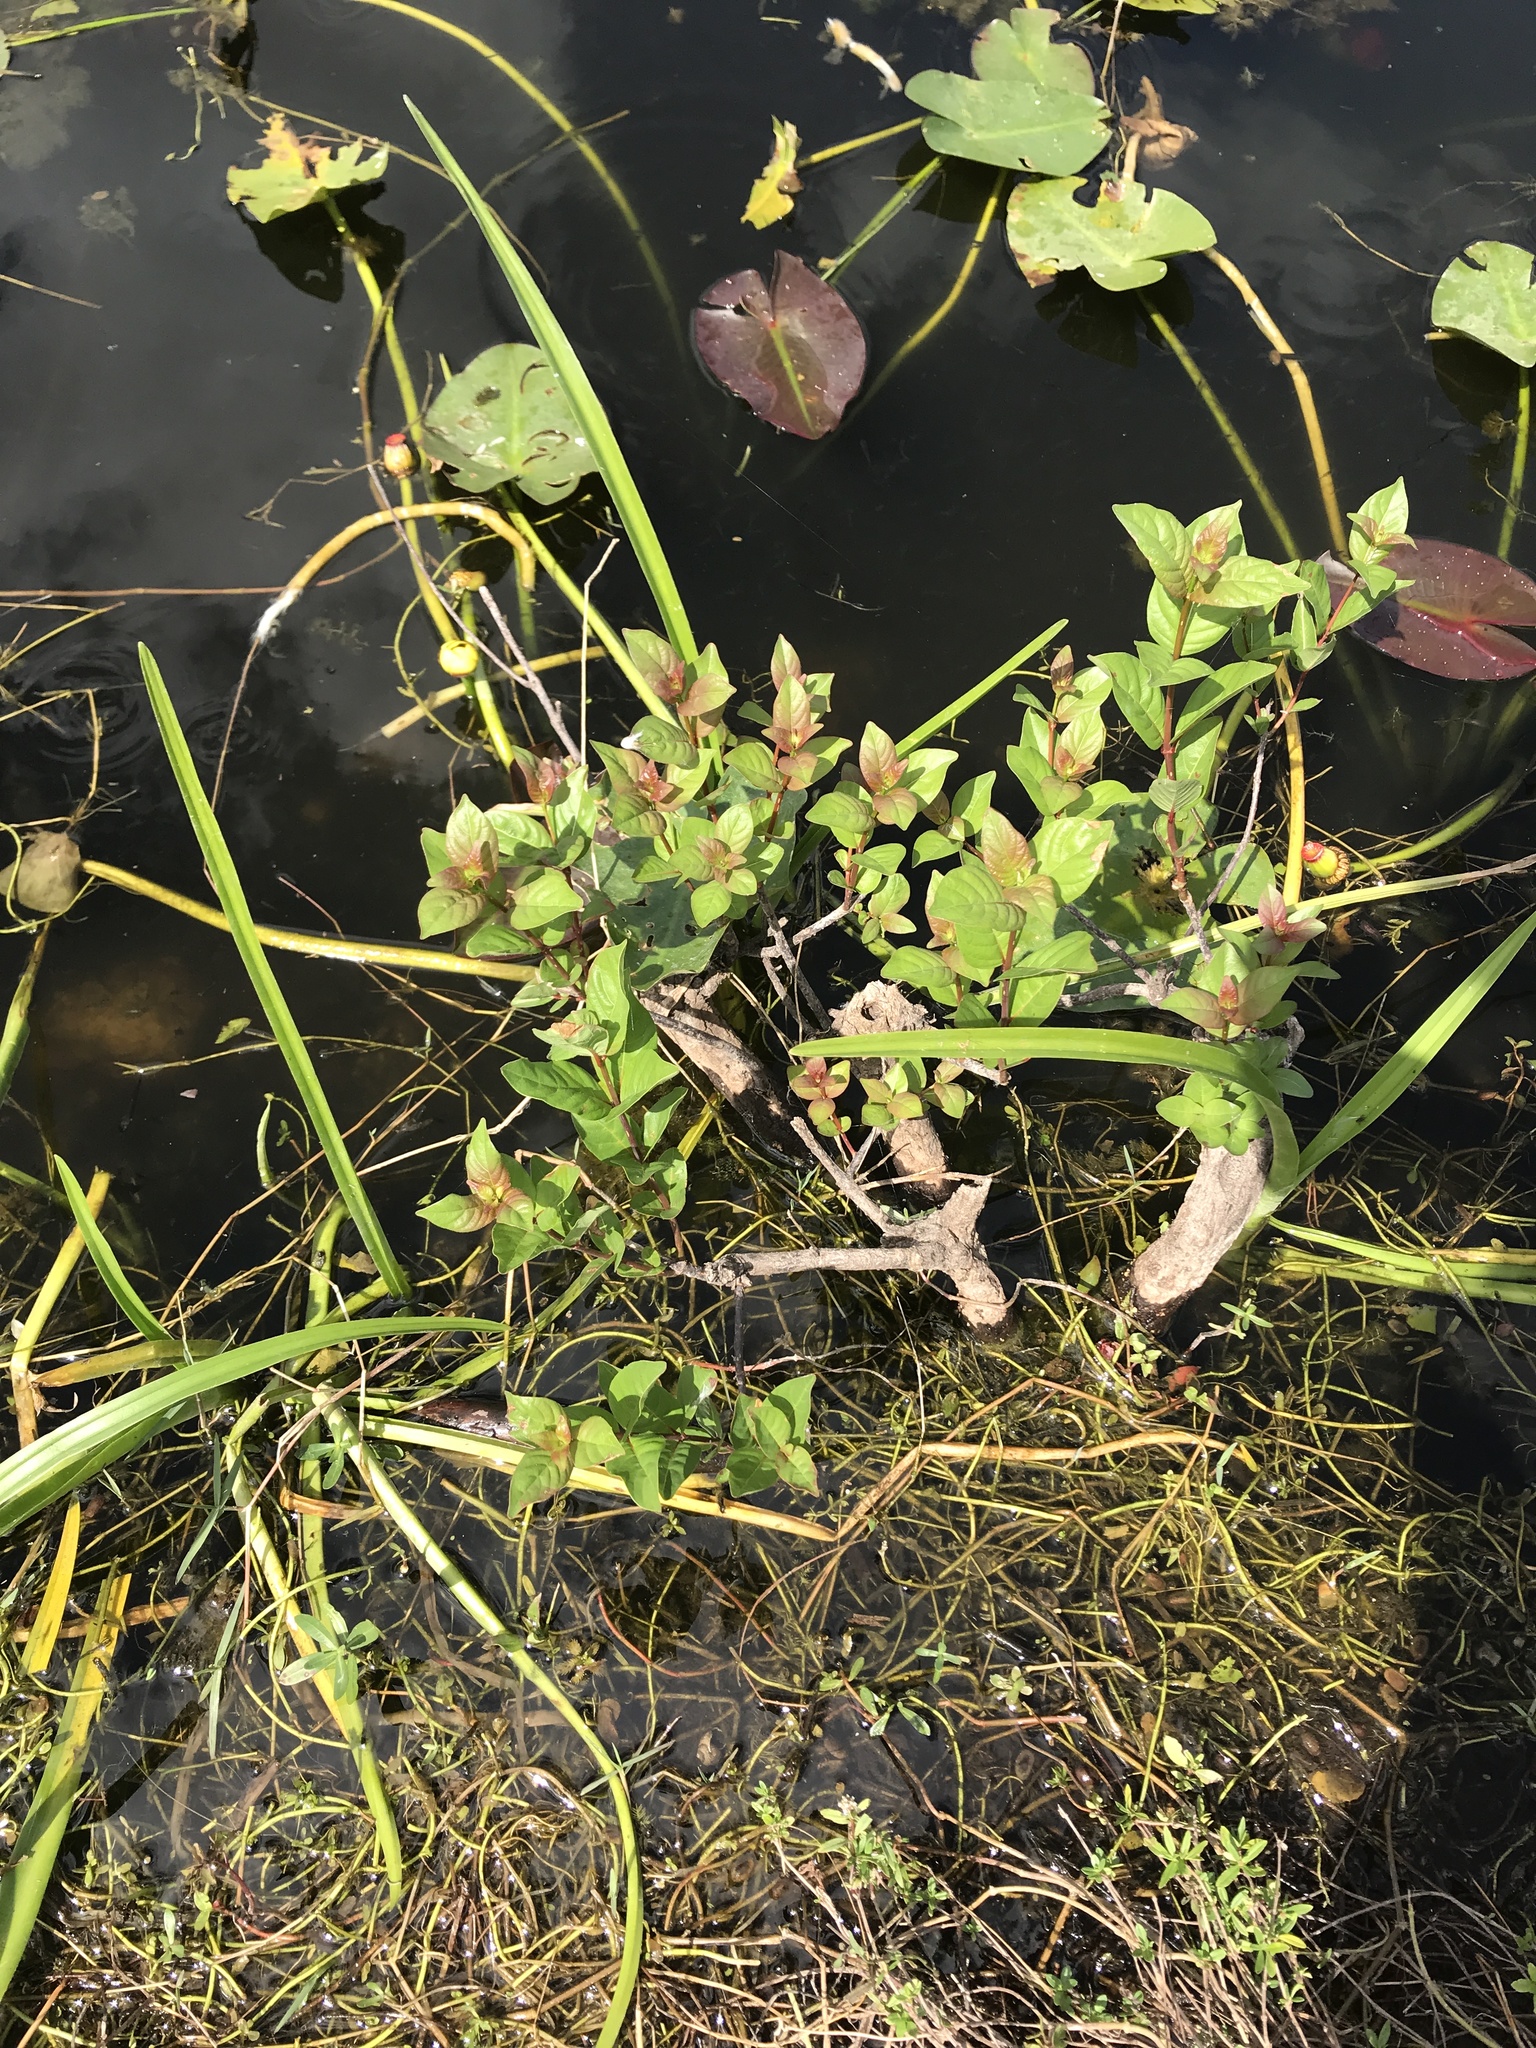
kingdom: Plantae
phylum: Tracheophyta
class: Magnoliopsida
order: Gentianales
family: Rubiaceae
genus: Cephalanthus
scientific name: Cephalanthus occidentalis
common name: Button-willow
